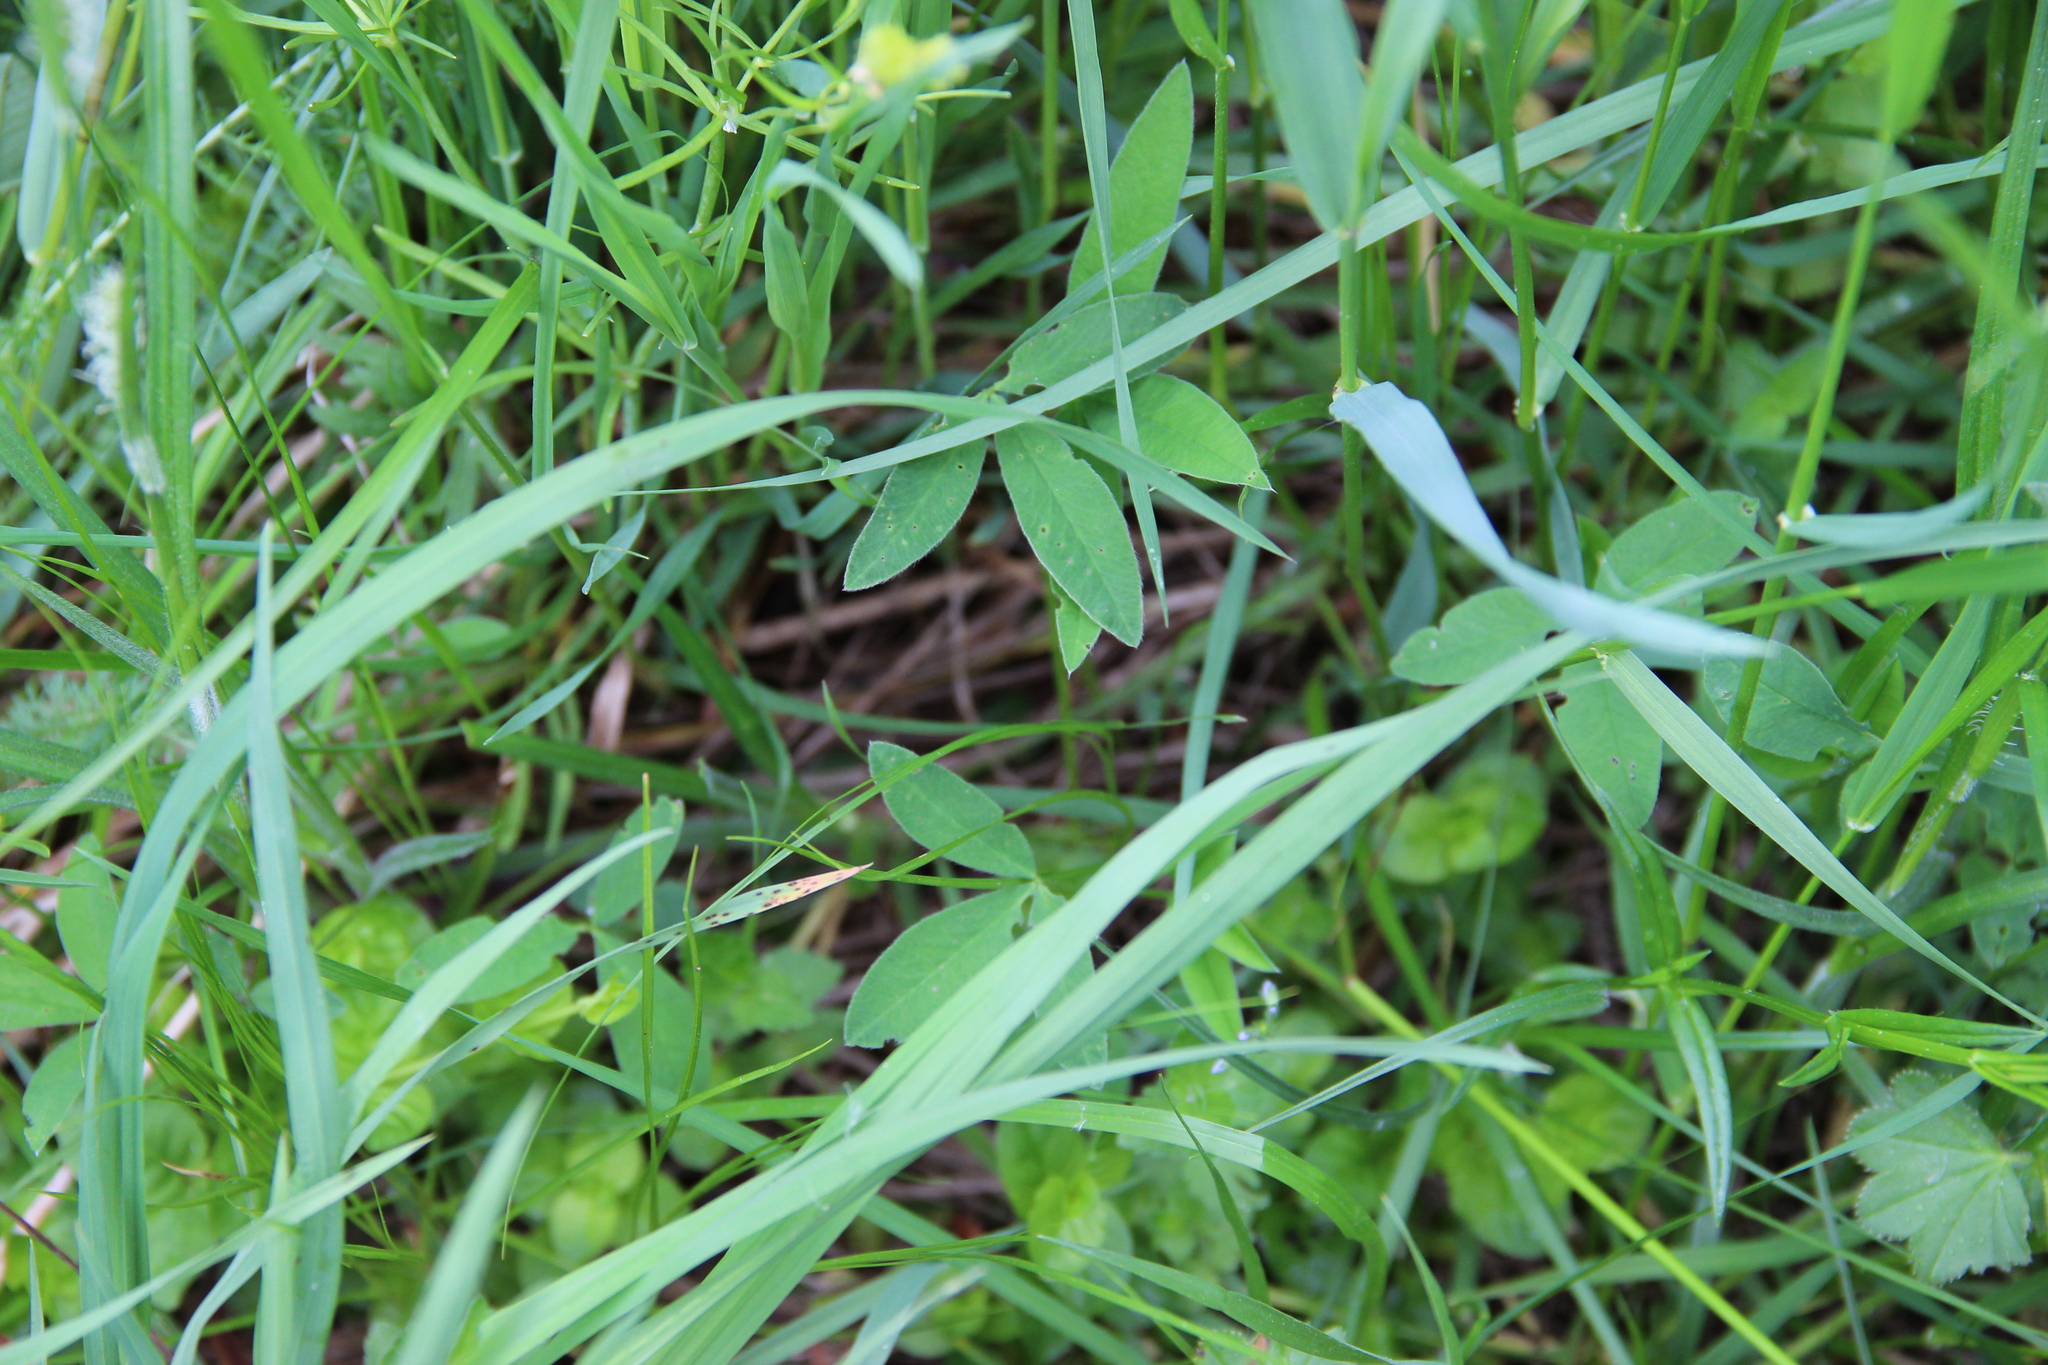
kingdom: Plantae
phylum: Tracheophyta
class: Magnoliopsida
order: Fabales
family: Fabaceae
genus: Trifolium
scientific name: Trifolium medium
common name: Zigzag clover
